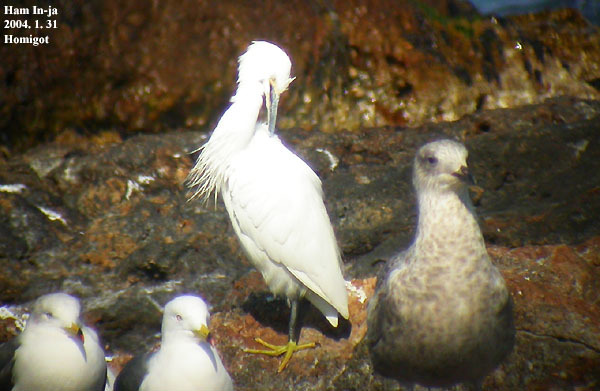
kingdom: Animalia
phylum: Chordata
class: Aves
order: Pelecaniformes
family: Ardeidae
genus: Egretta
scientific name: Egretta garzetta
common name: Little egret
